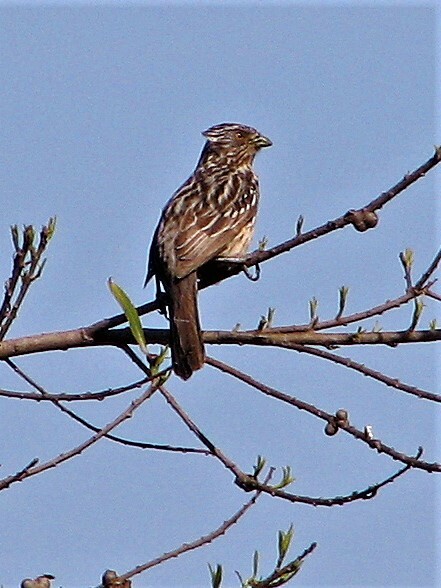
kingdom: Animalia
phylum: Chordata
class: Aves
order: Passeriformes
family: Cotingidae
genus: Phytotoma
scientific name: Phytotoma rutila
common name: White-tipped plantcutter
